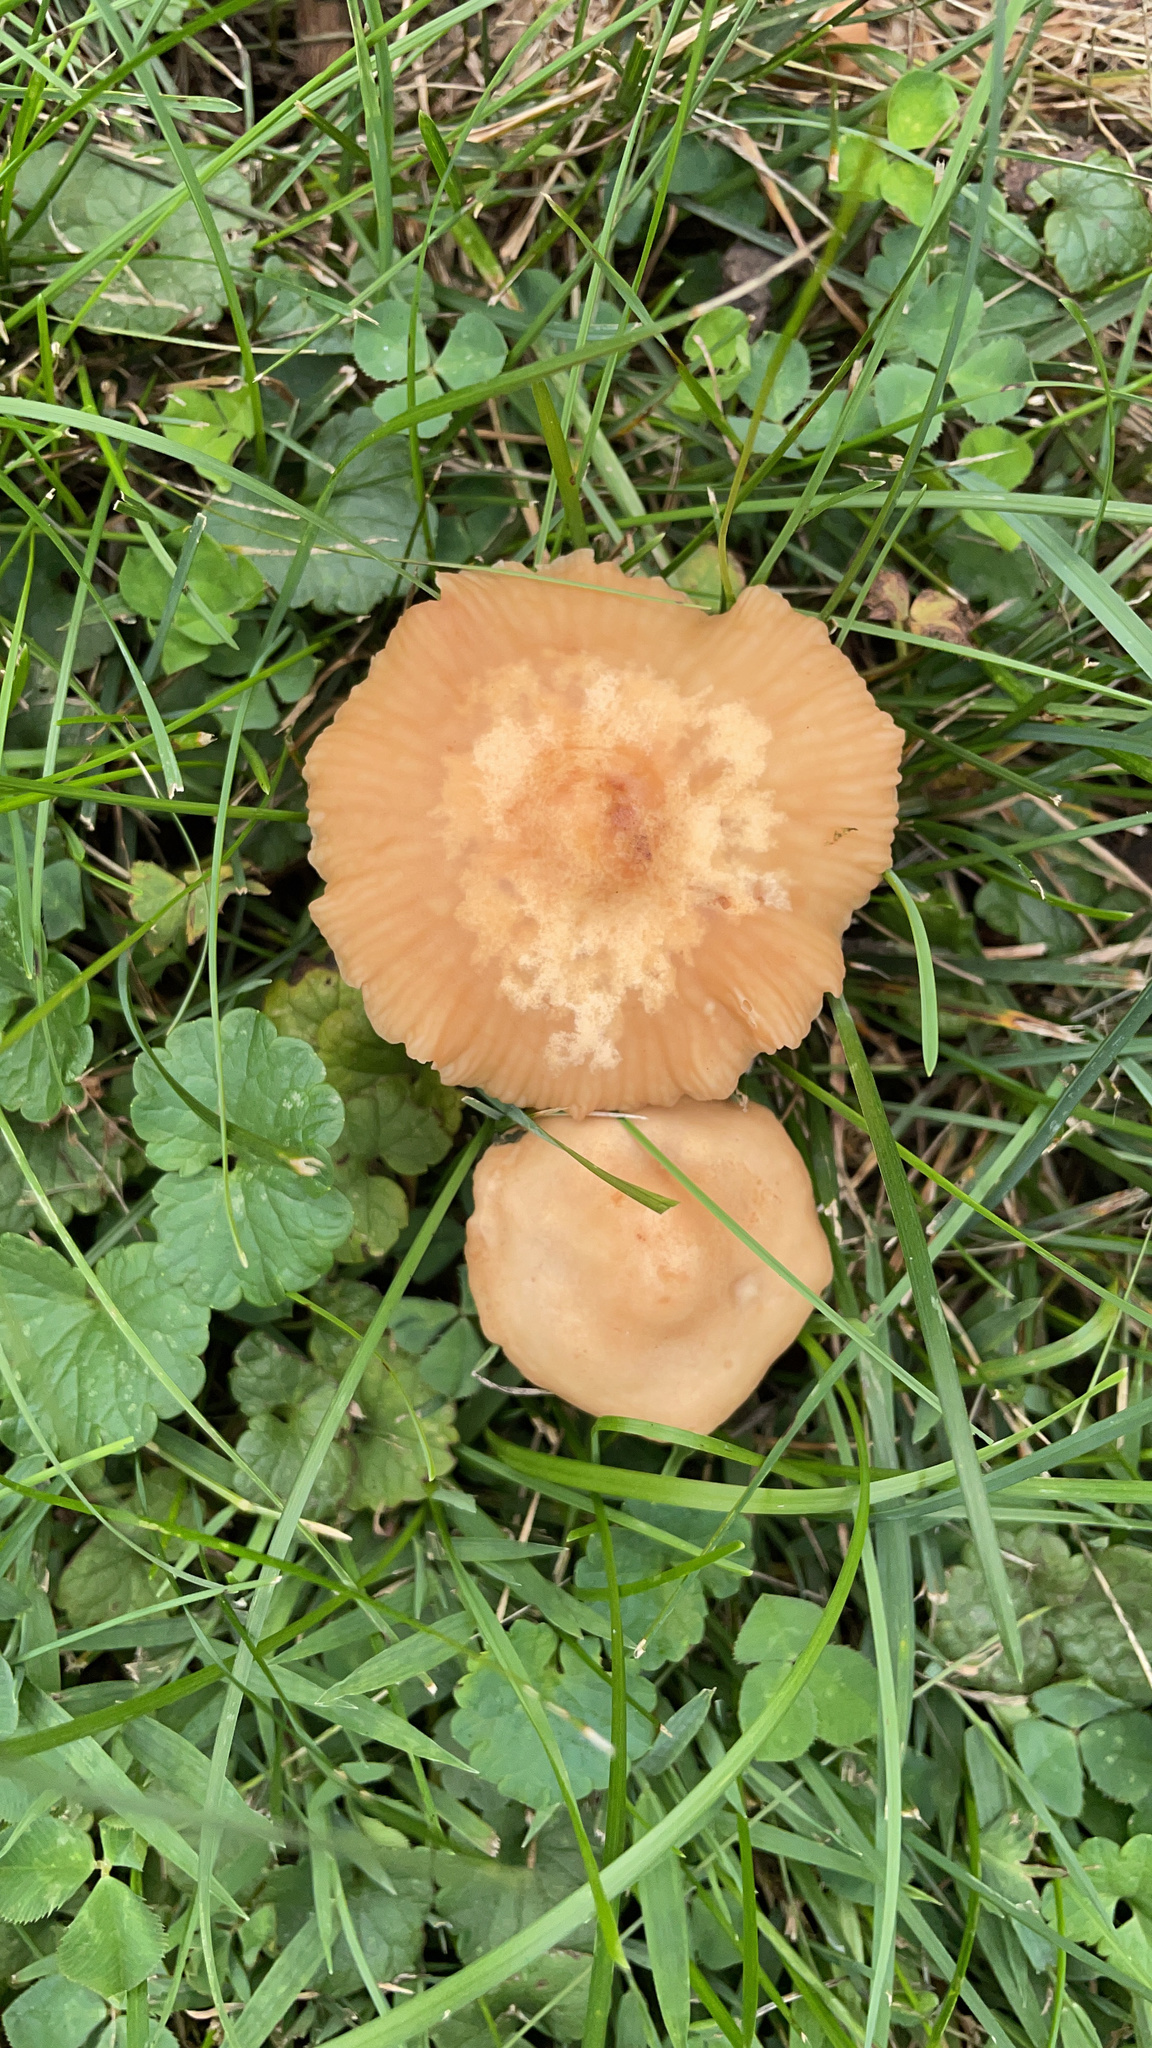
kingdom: Fungi
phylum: Basidiomycota
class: Agaricomycetes
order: Agaricales
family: Marasmiaceae
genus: Marasmius
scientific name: Marasmius oreades
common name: Fairy ring champignon
